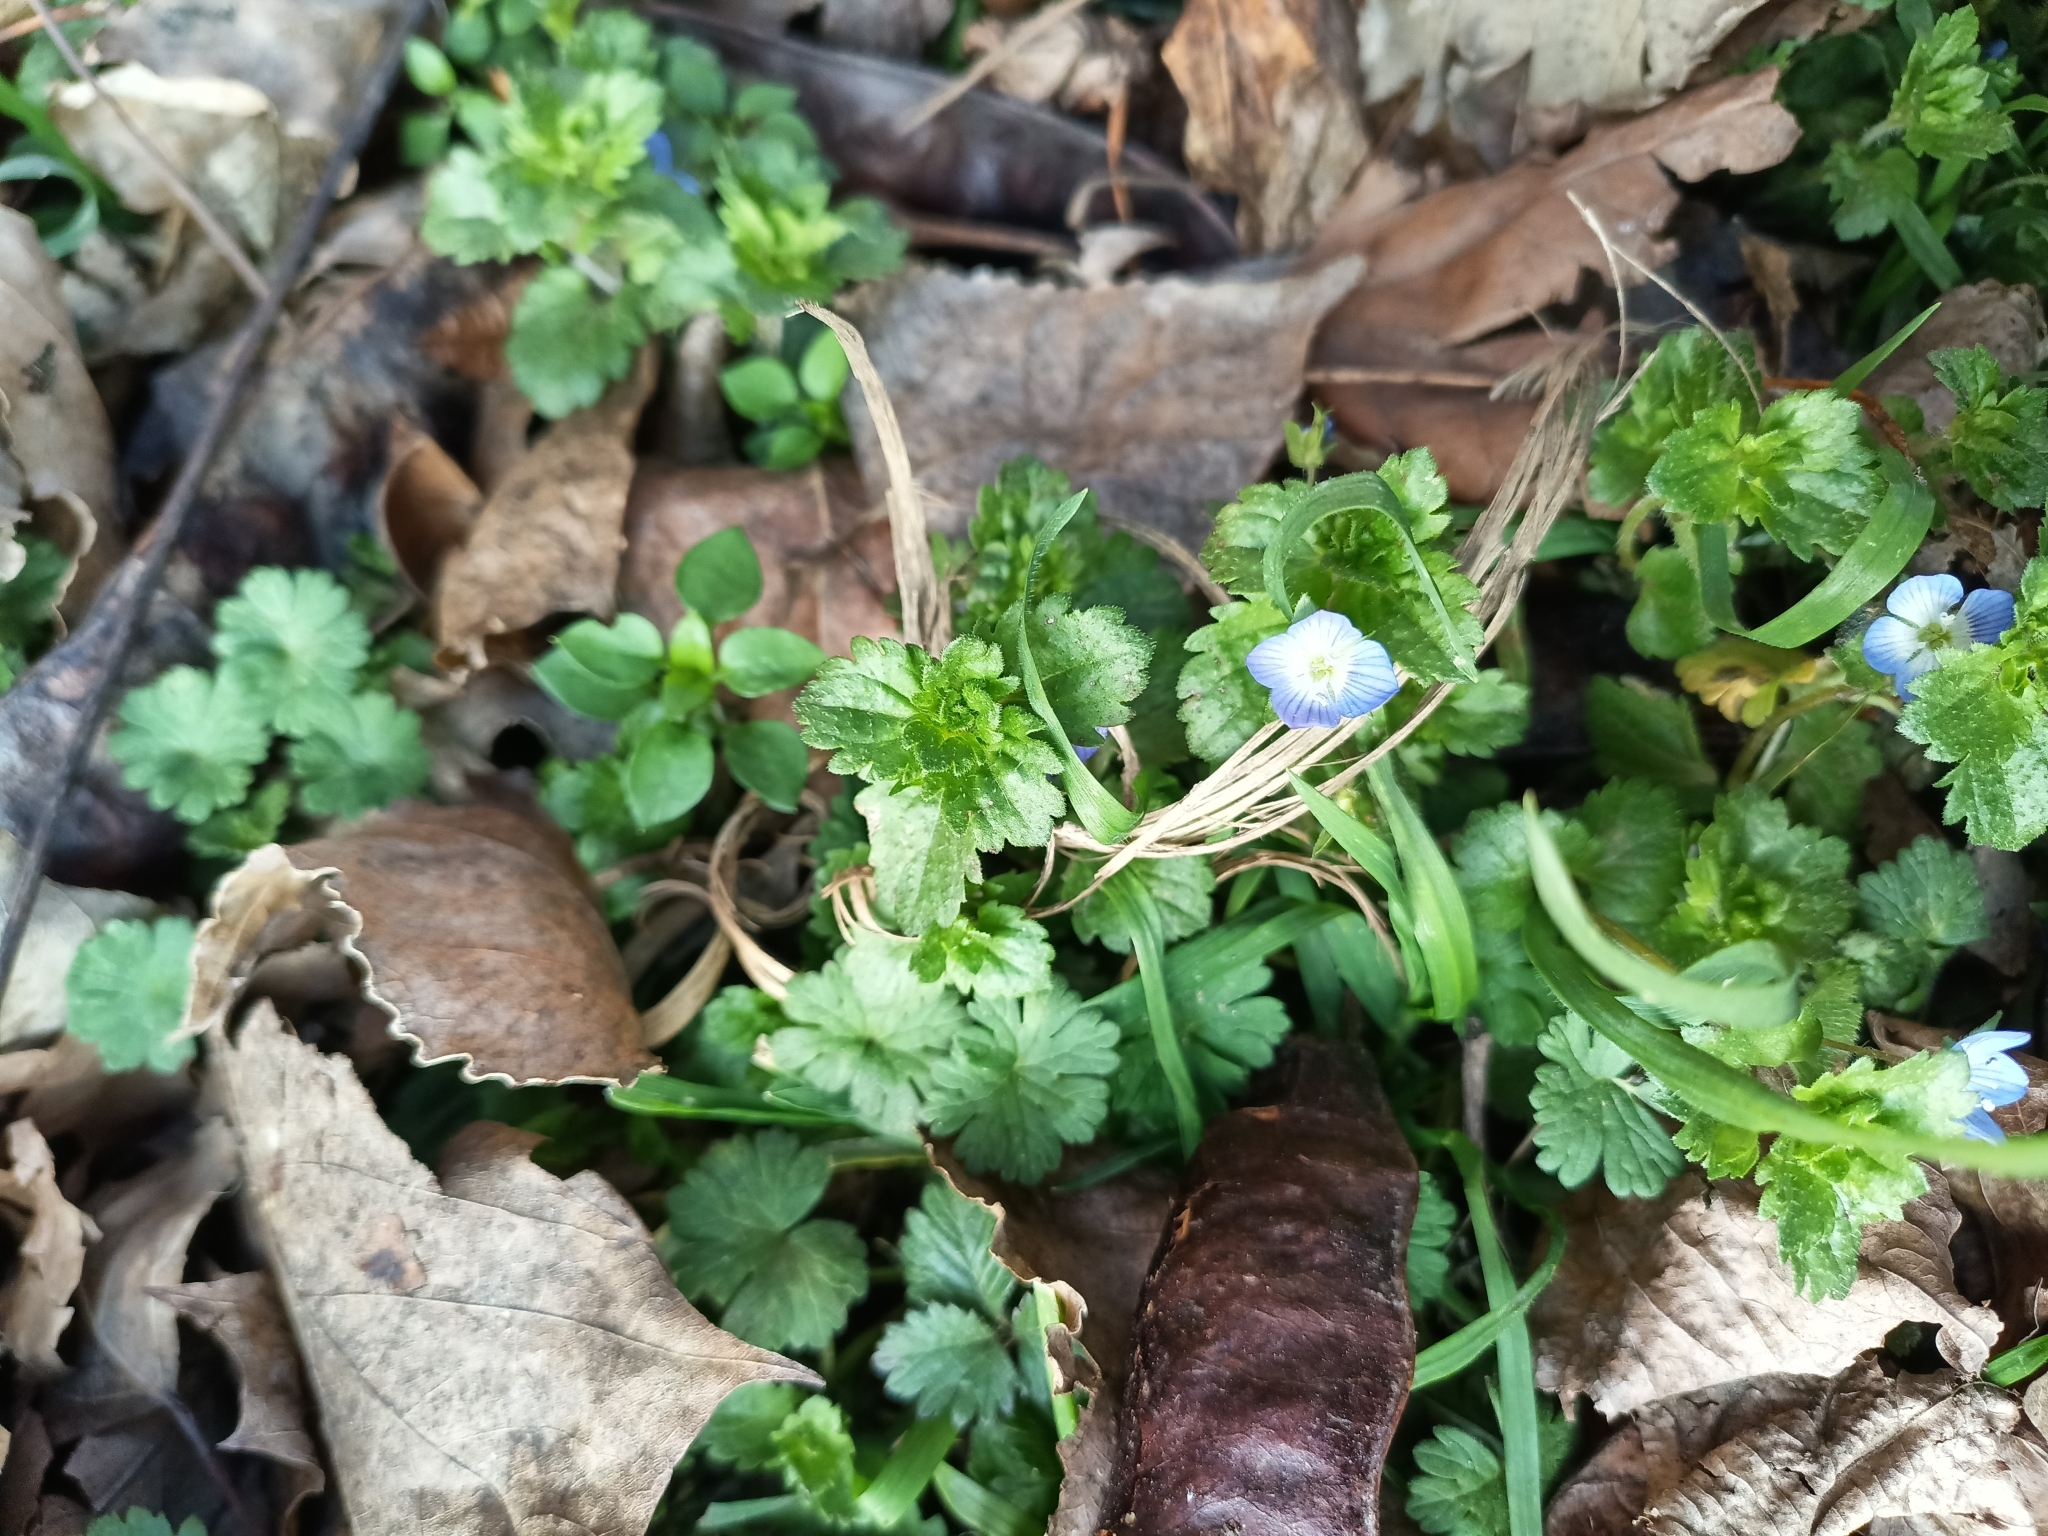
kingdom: Plantae
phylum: Tracheophyta
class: Magnoliopsida
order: Lamiales
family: Plantaginaceae
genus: Veronica
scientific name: Veronica persica
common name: Common field-speedwell
